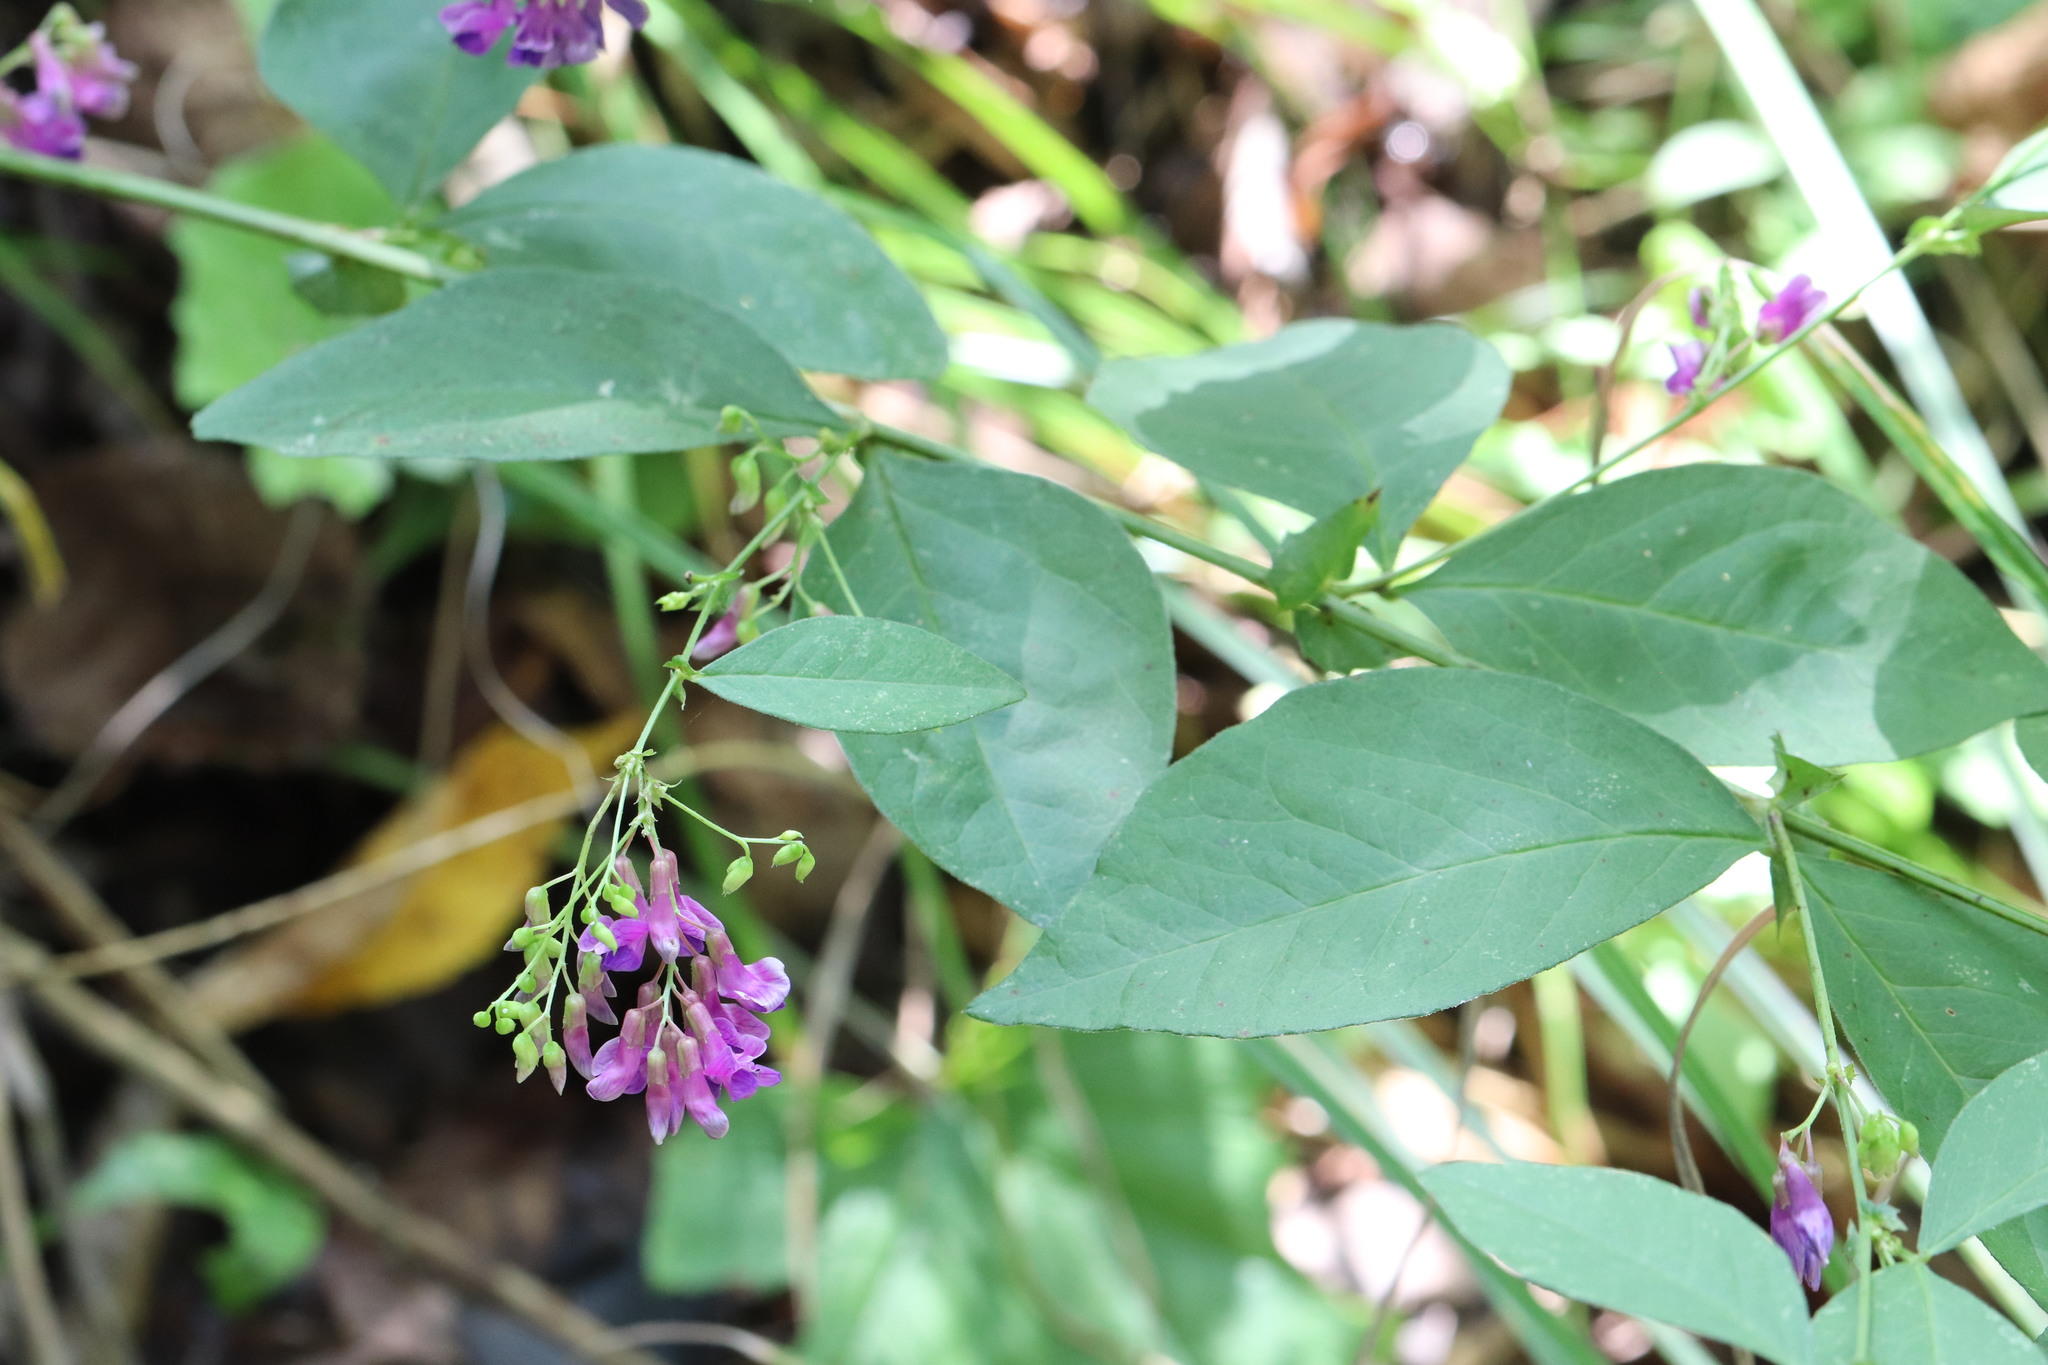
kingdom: Plantae
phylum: Tracheophyta
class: Magnoliopsida
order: Fabales
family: Fabaceae
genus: Vicia
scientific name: Vicia unijuga
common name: Two-leaf vetch
